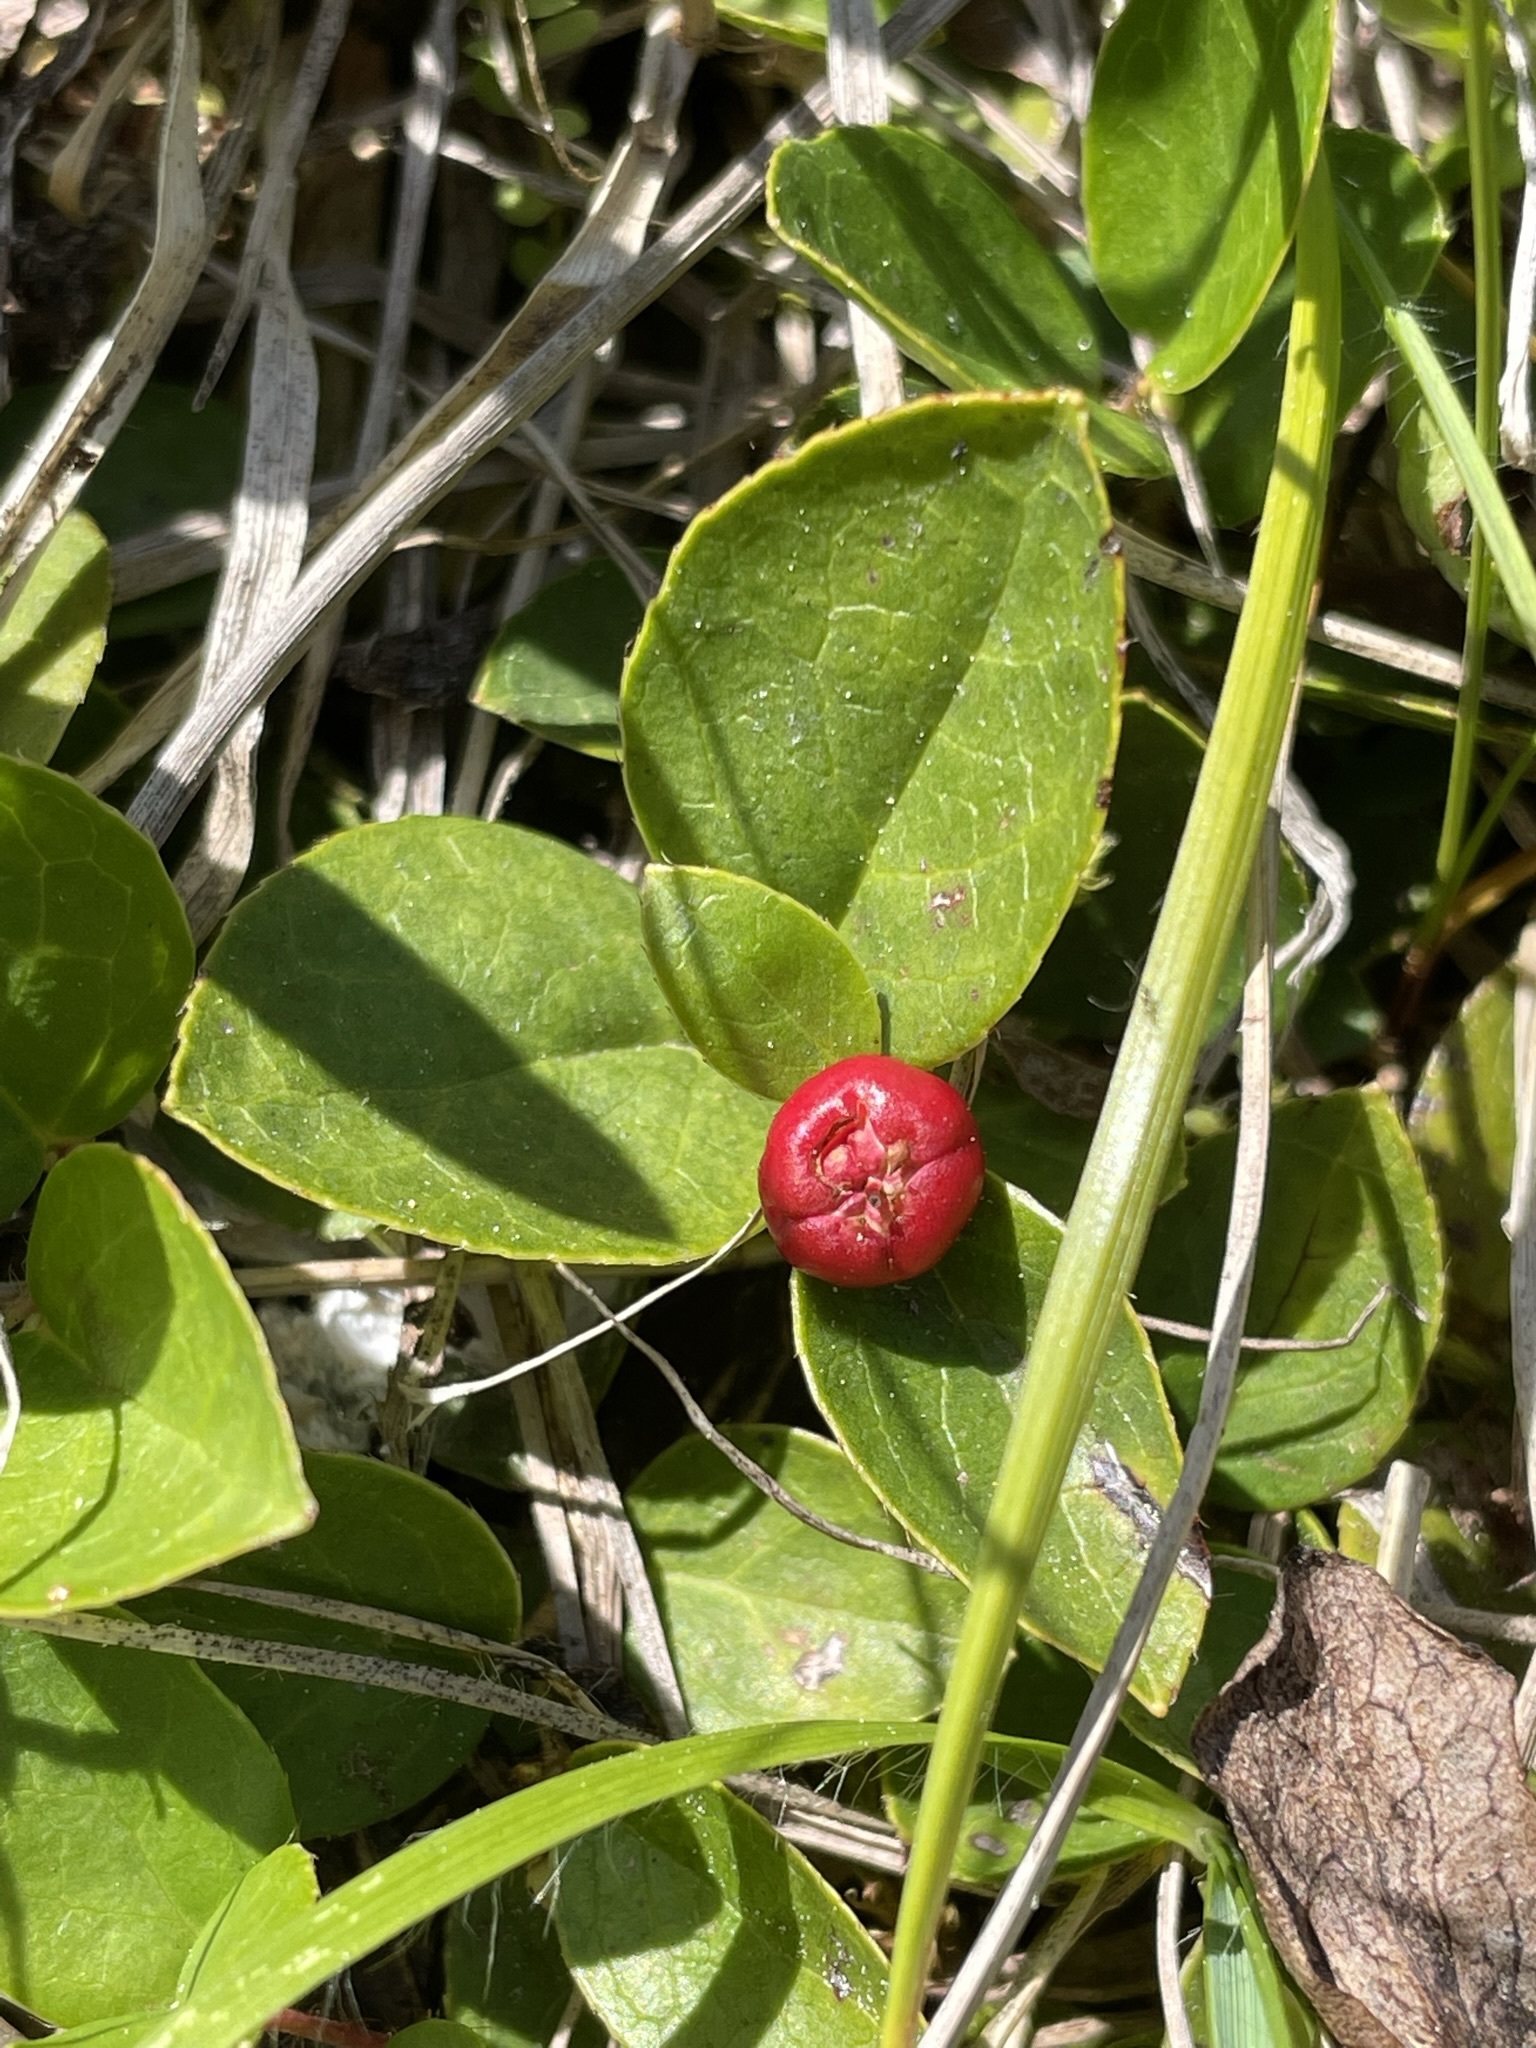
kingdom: Plantae
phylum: Tracheophyta
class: Magnoliopsida
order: Ericales
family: Ericaceae
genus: Gaultheria
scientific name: Gaultheria humifusa
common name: Alpine wintergreen
